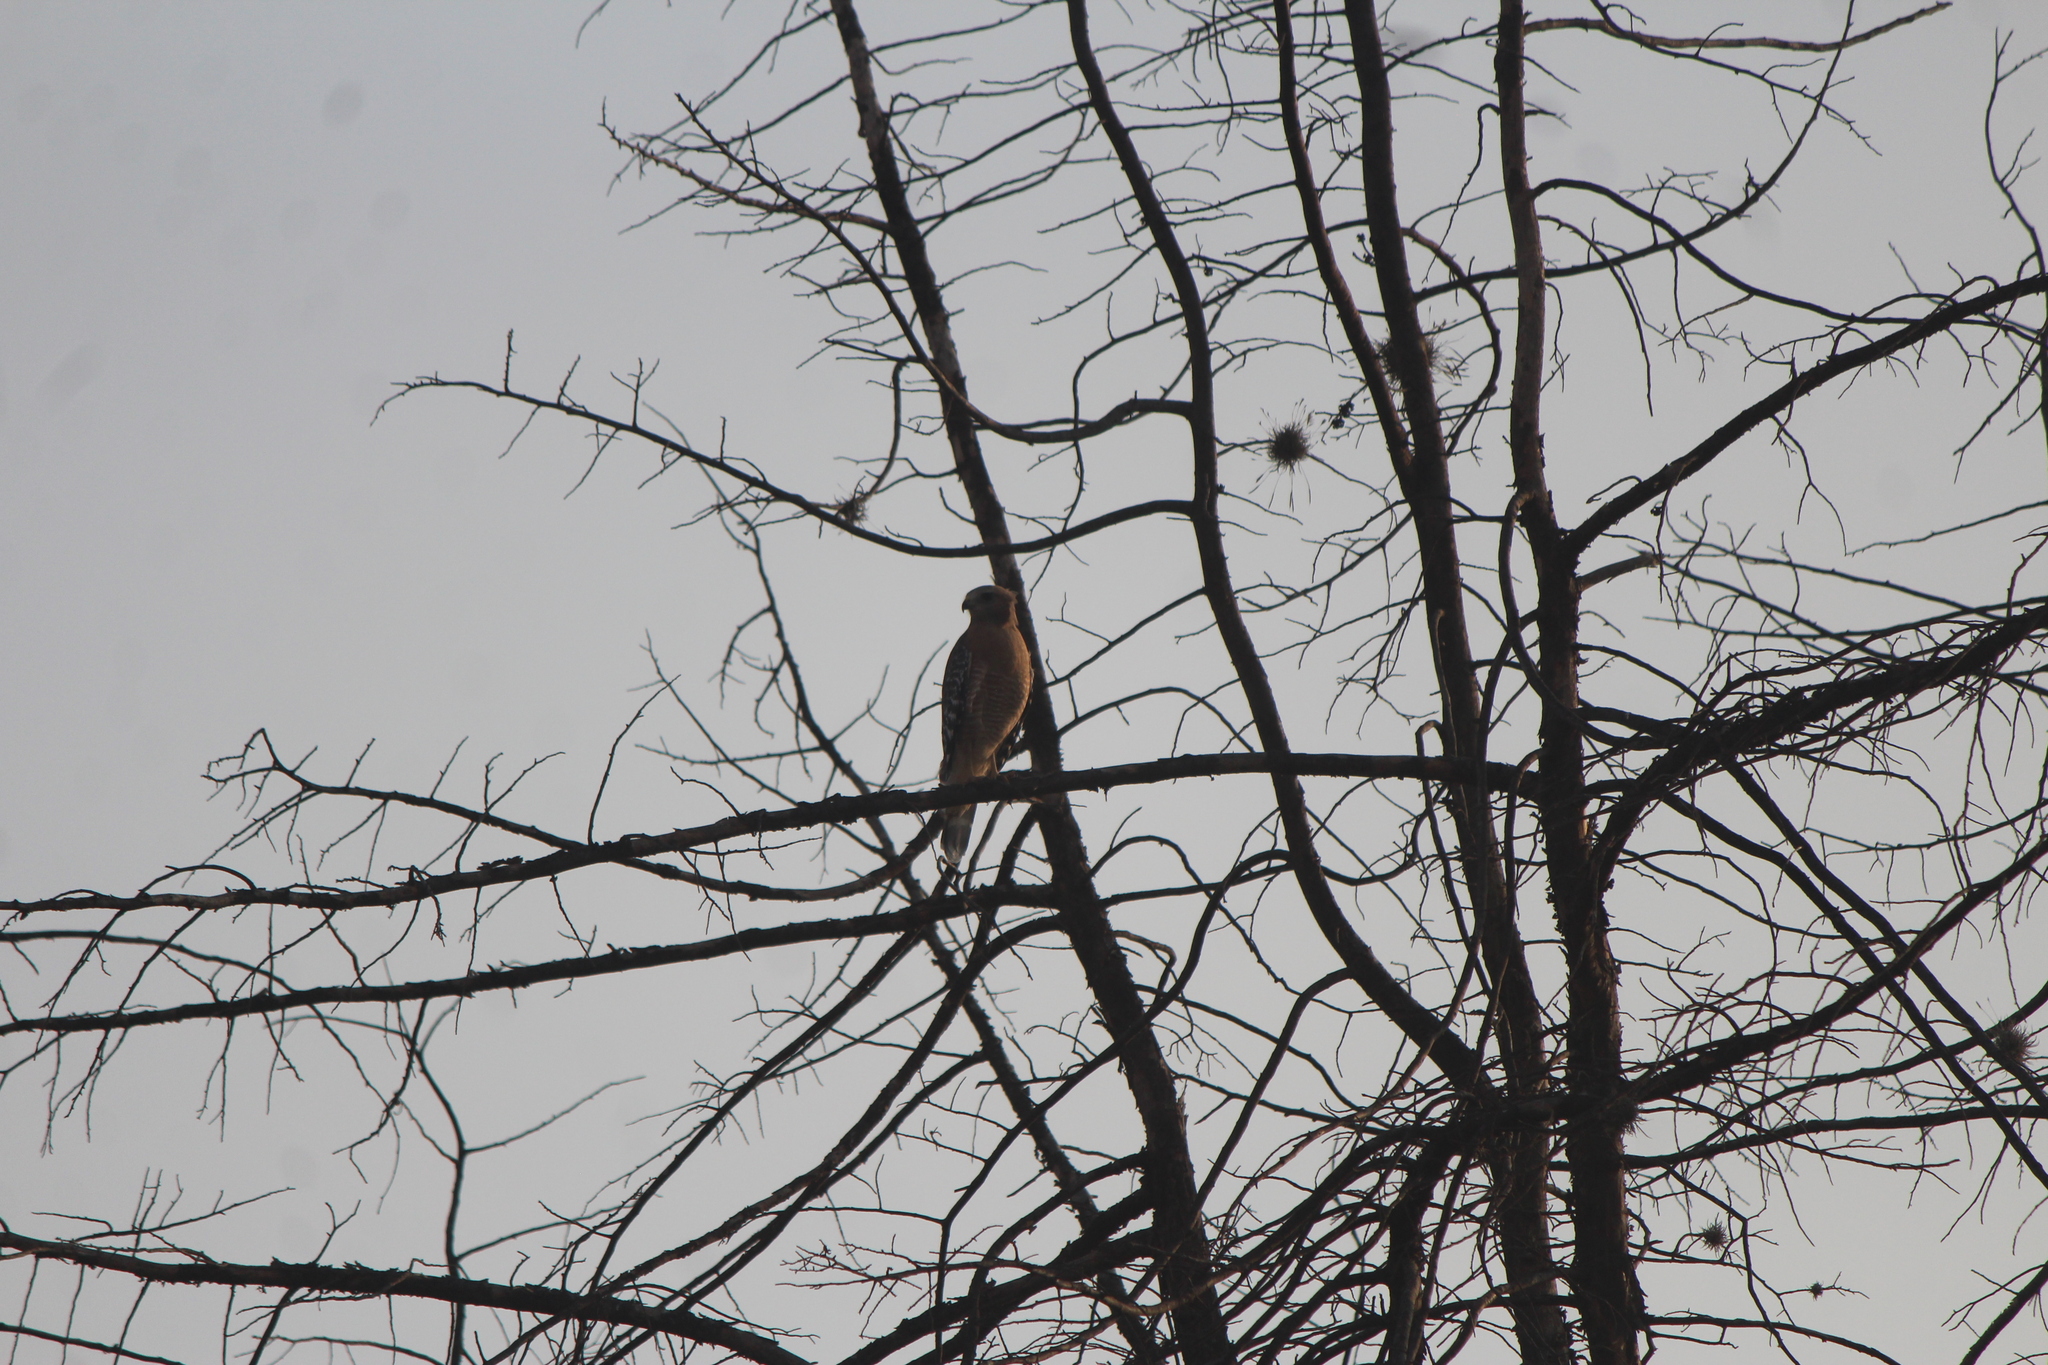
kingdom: Animalia
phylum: Chordata
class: Aves
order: Accipitriformes
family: Accipitridae
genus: Buteo
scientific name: Buteo lineatus
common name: Red-shouldered hawk
